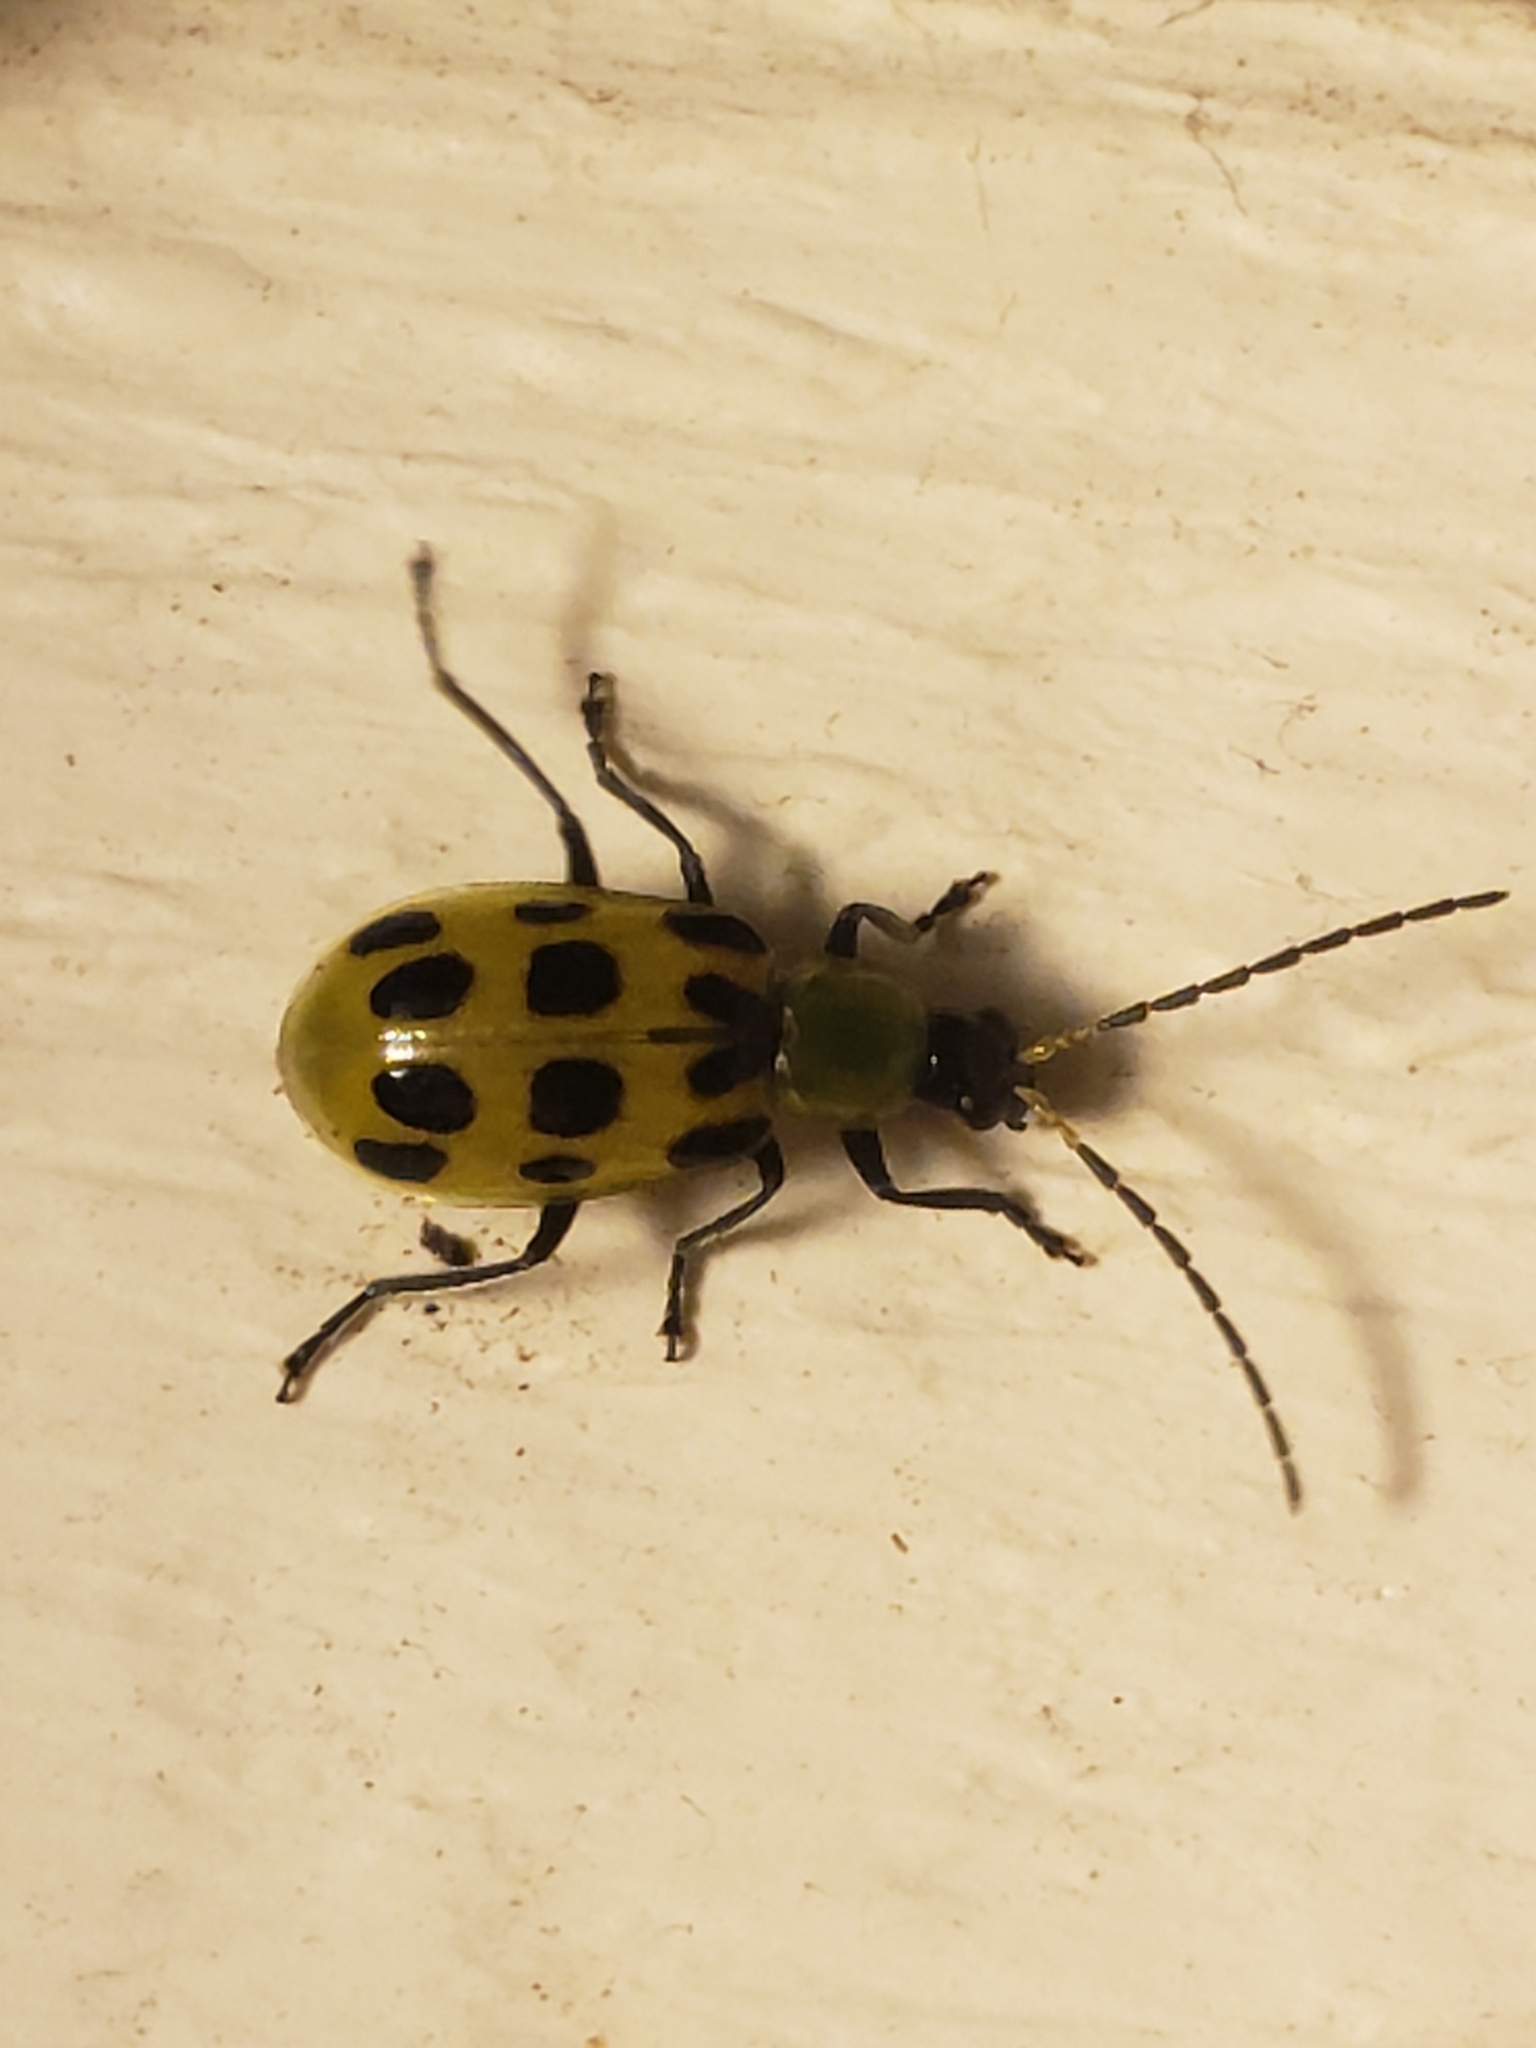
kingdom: Animalia
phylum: Arthropoda
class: Insecta
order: Coleoptera
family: Chrysomelidae
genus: Diabrotica
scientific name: Diabrotica undecimpunctata
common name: Spotted cucumber beetle
